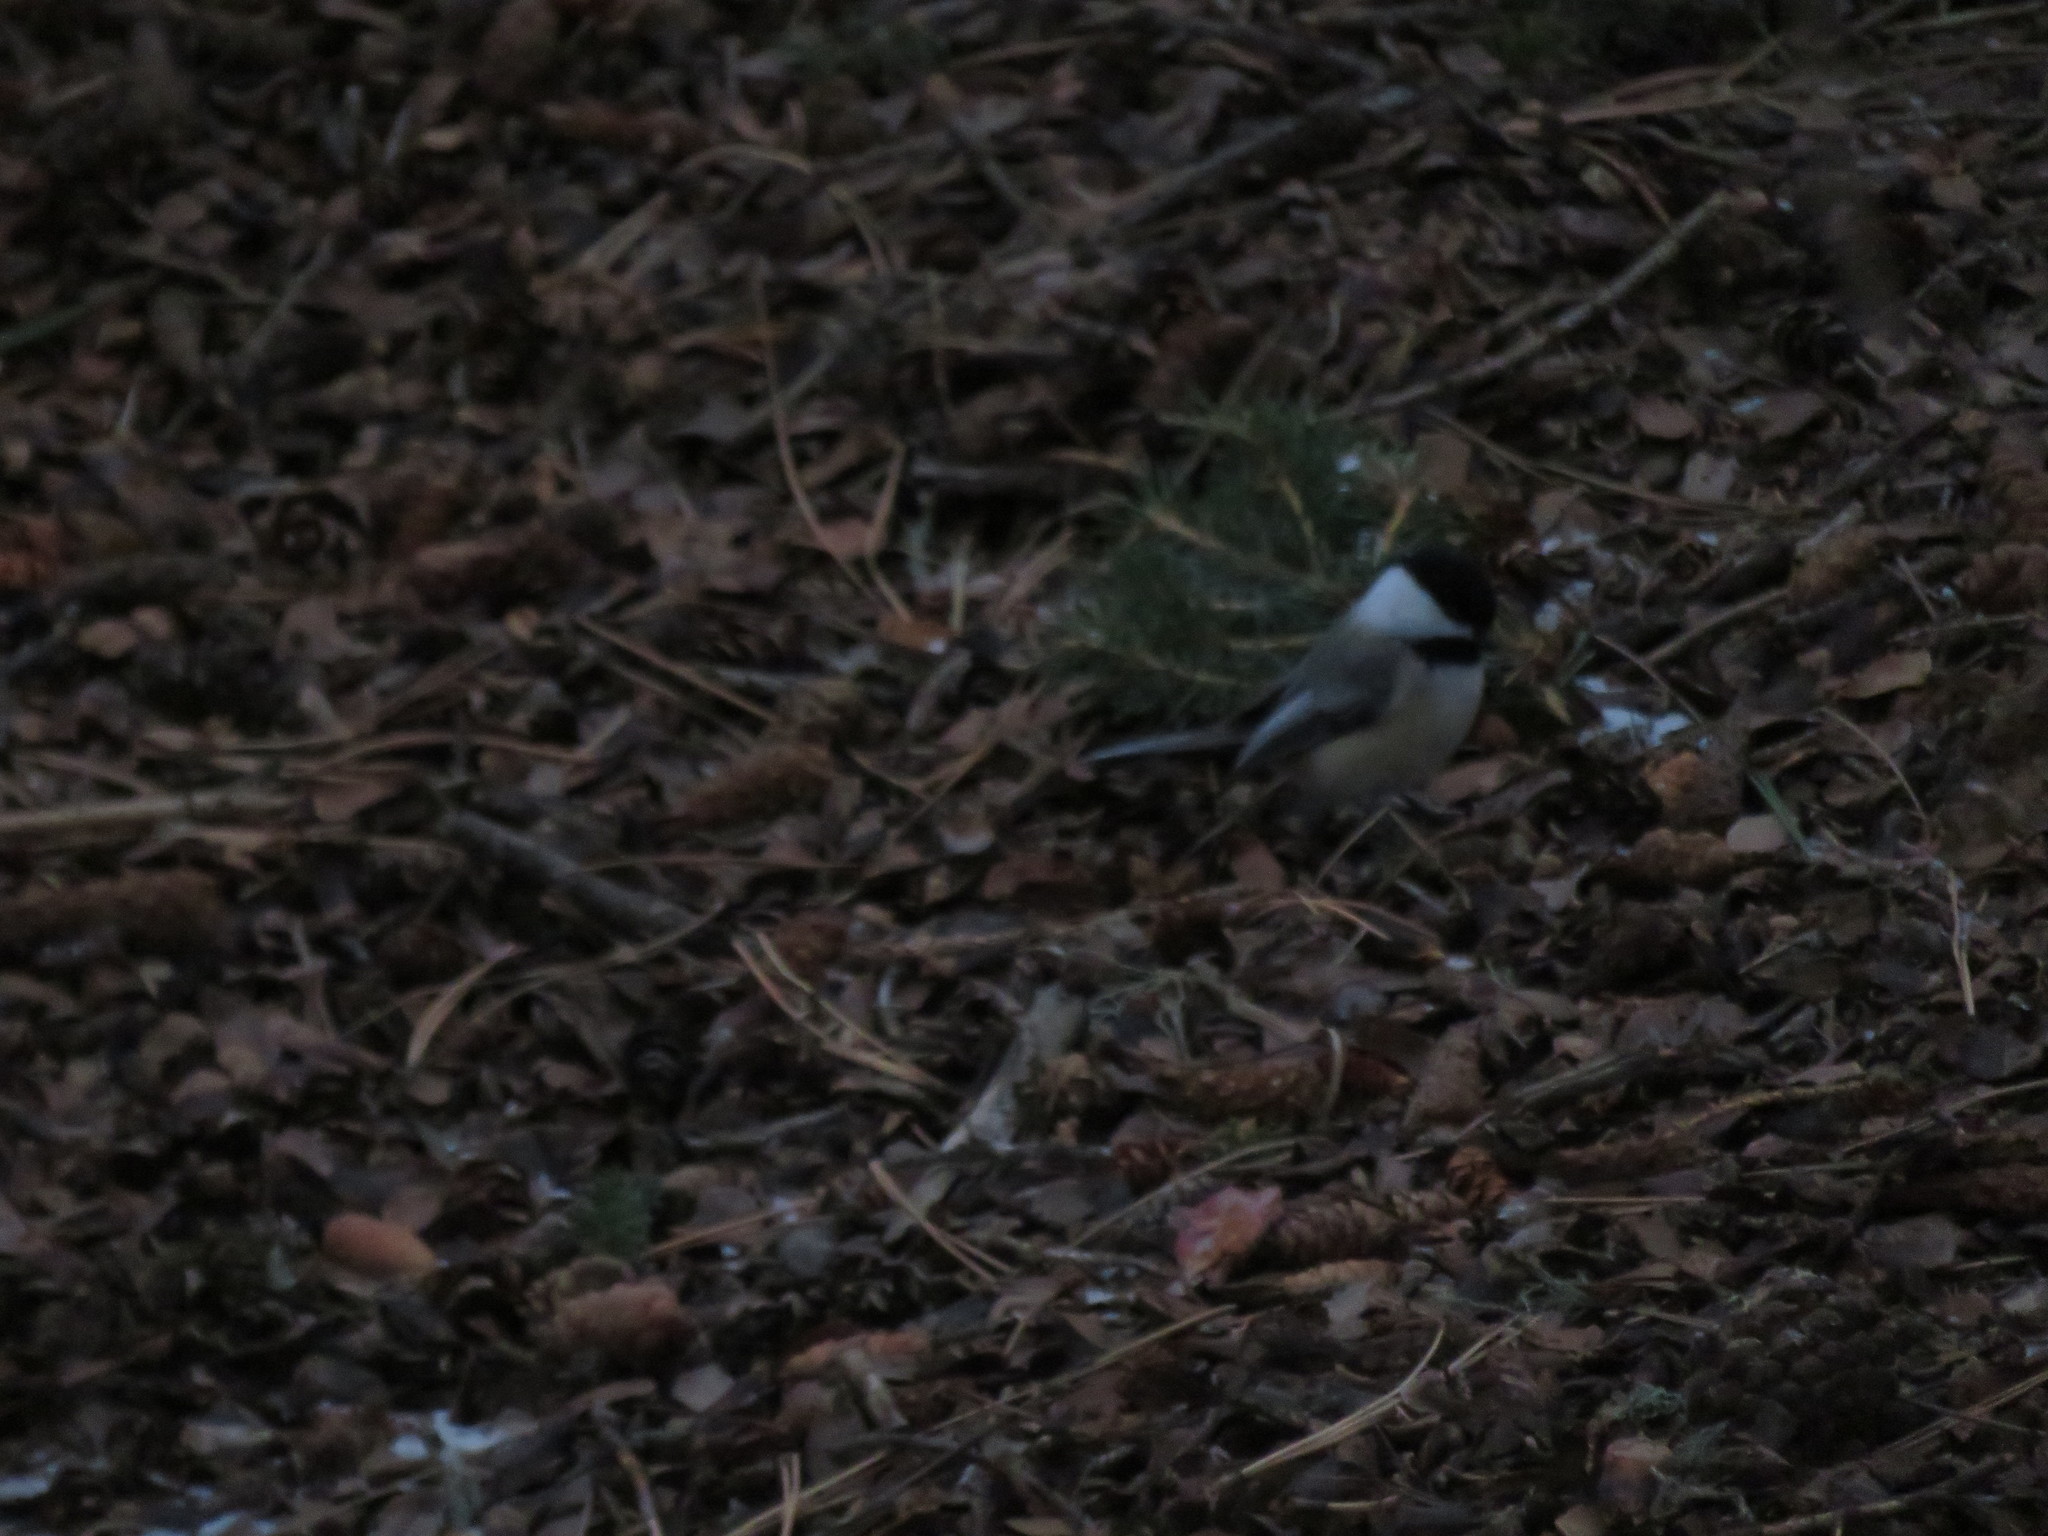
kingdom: Animalia
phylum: Chordata
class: Aves
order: Passeriformes
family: Paridae
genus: Poecile
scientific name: Poecile atricapillus
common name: Black-capped chickadee
